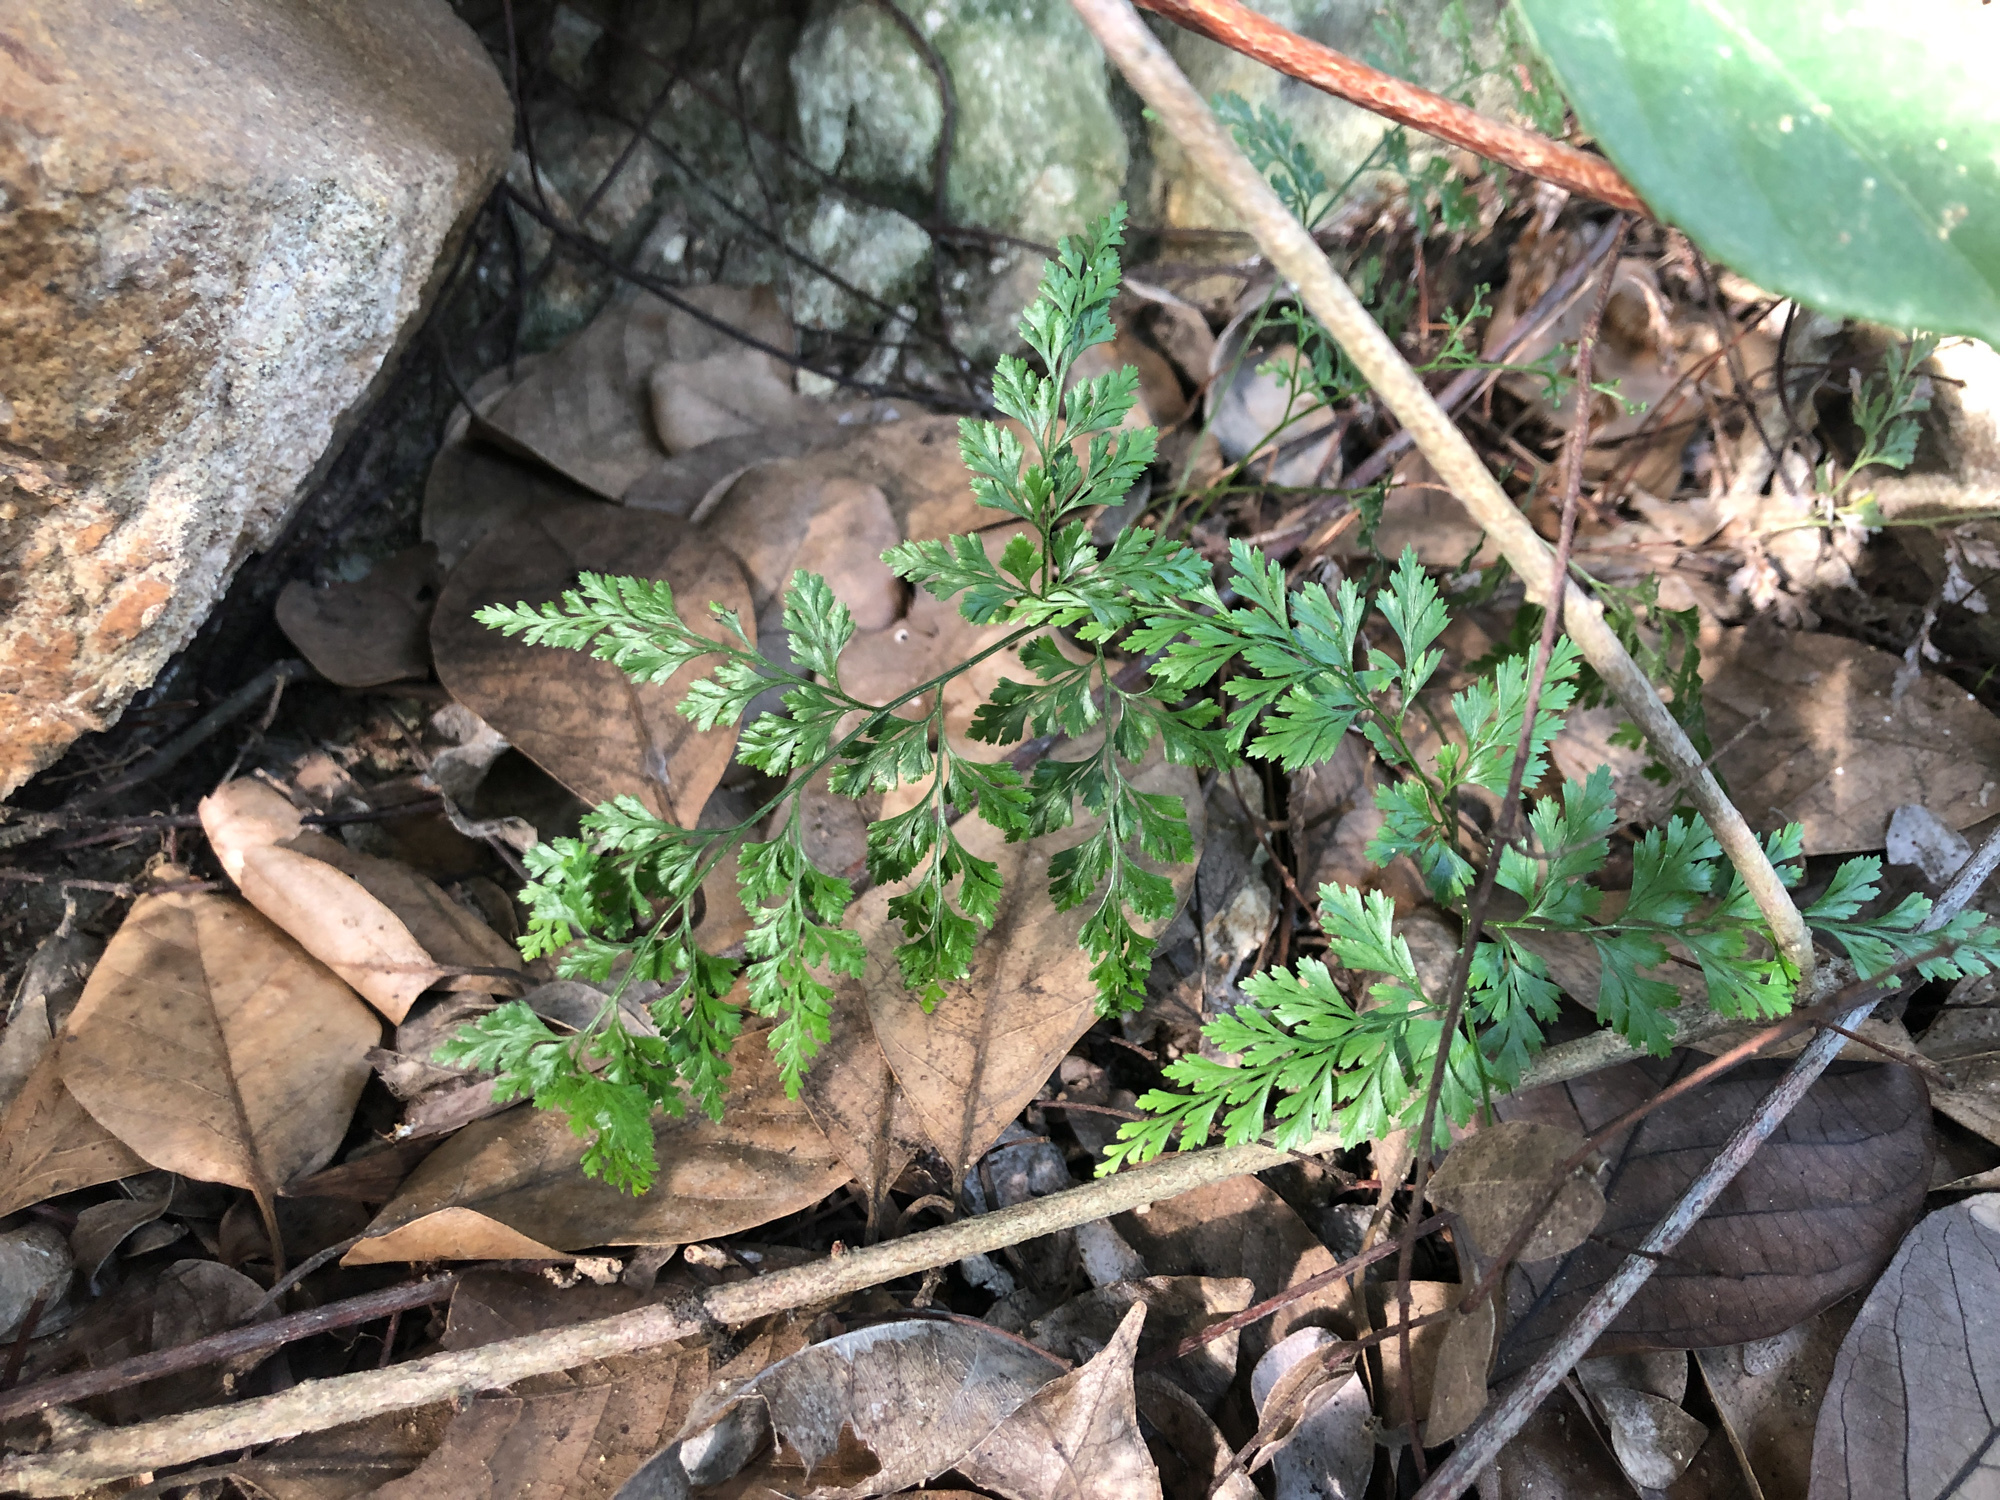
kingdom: Plantae
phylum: Tracheophyta
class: Polypodiopsida
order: Polypodiales
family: Pteridaceae
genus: Onychium
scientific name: Onychium japonicum
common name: Carrot fern
